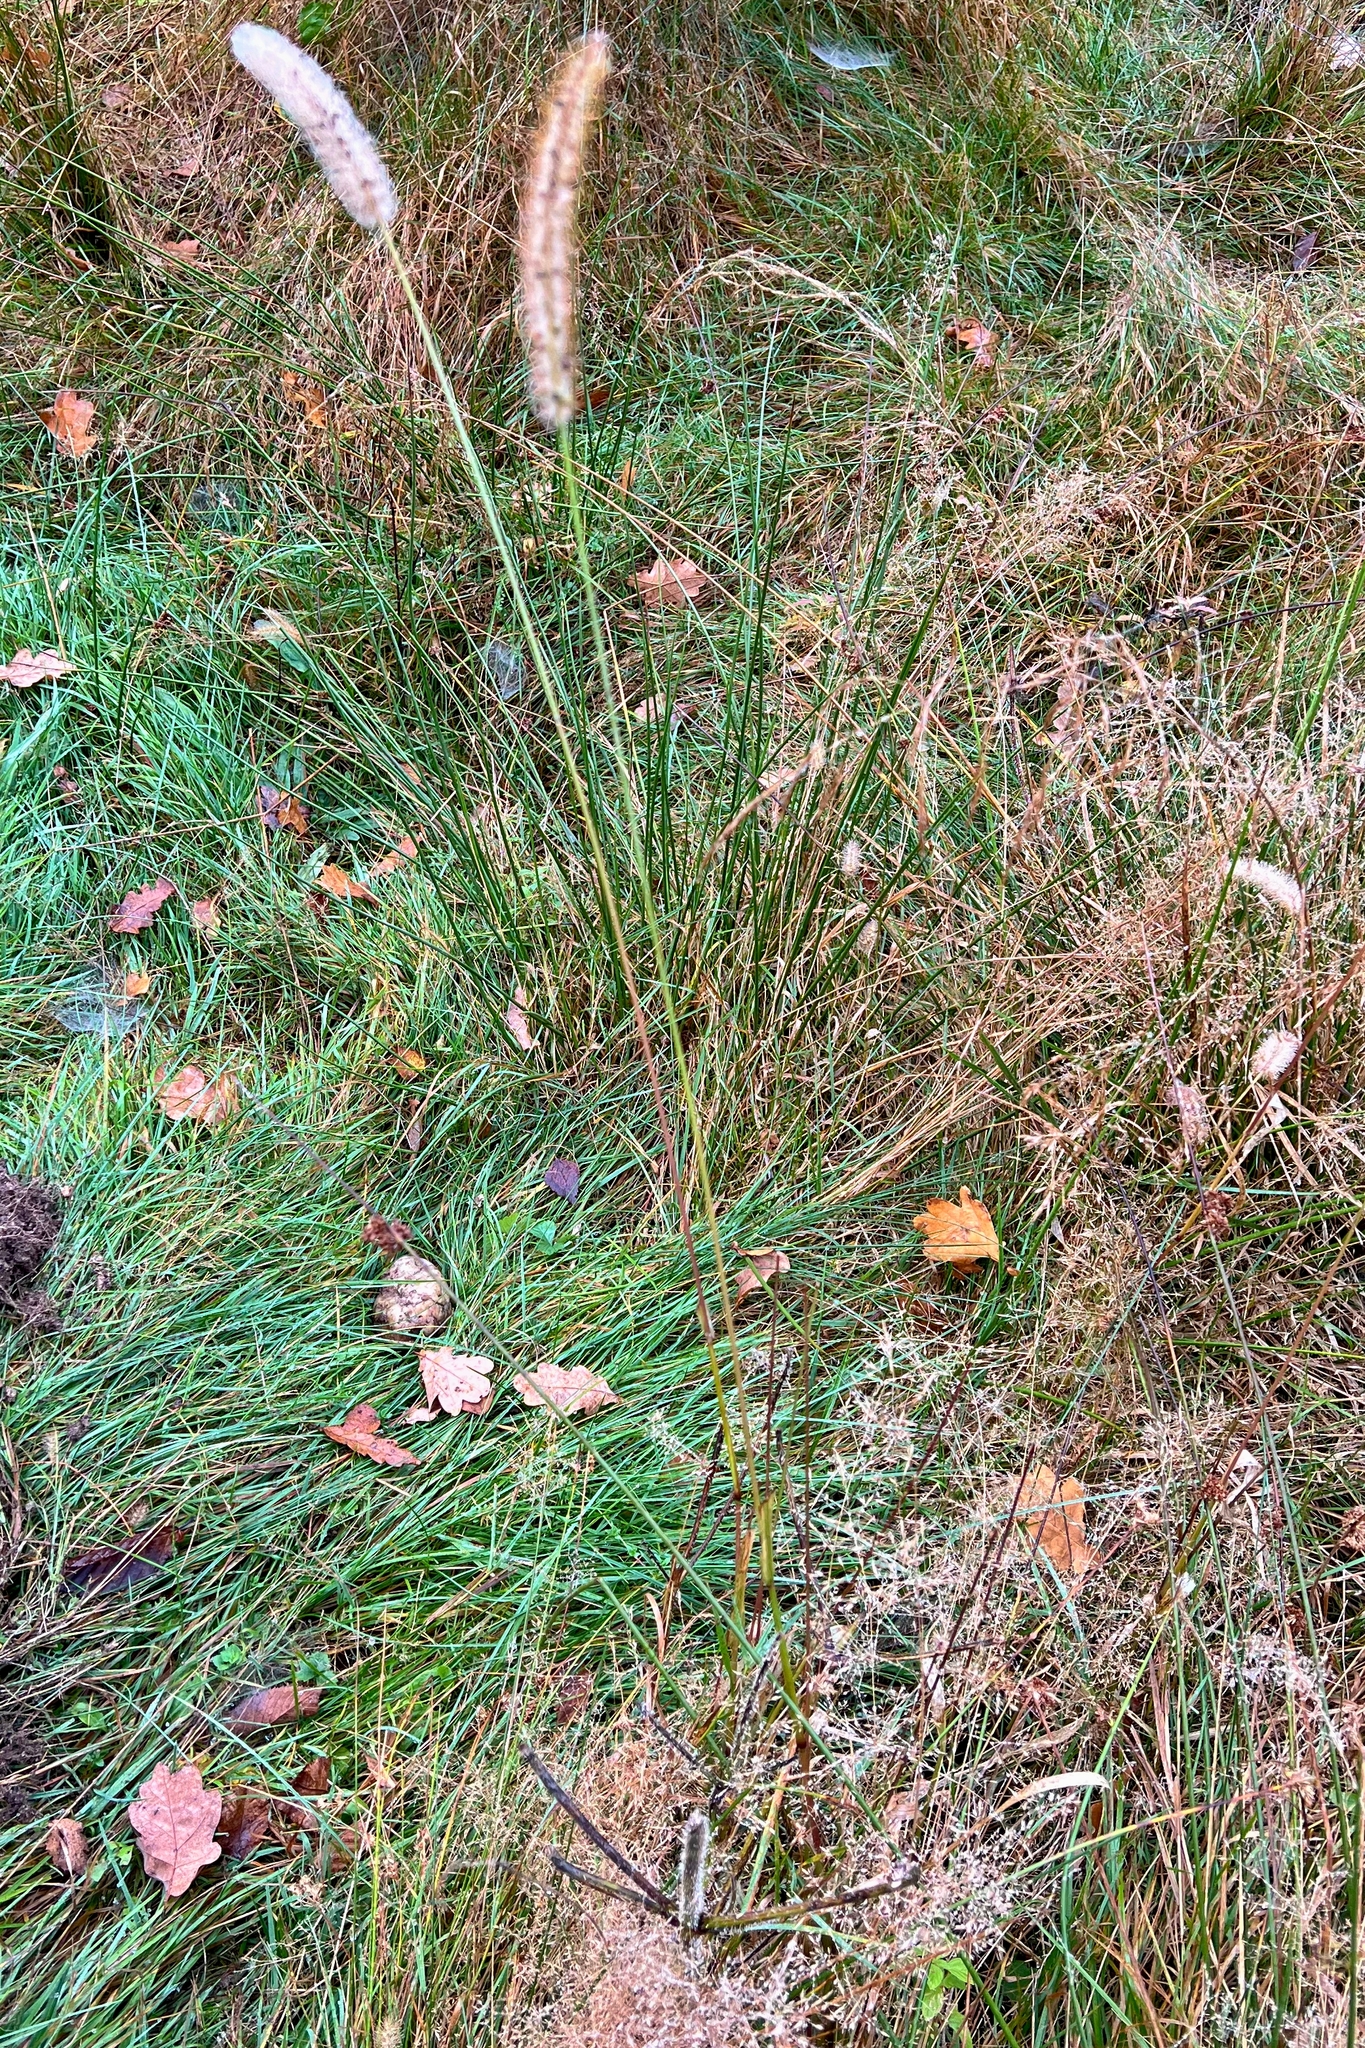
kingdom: Plantae
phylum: Tracheophyta
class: Liliopsida
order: Poales
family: Poaceae
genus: Setaria
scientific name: Setaria pumila
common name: Yellow bristle-grass
